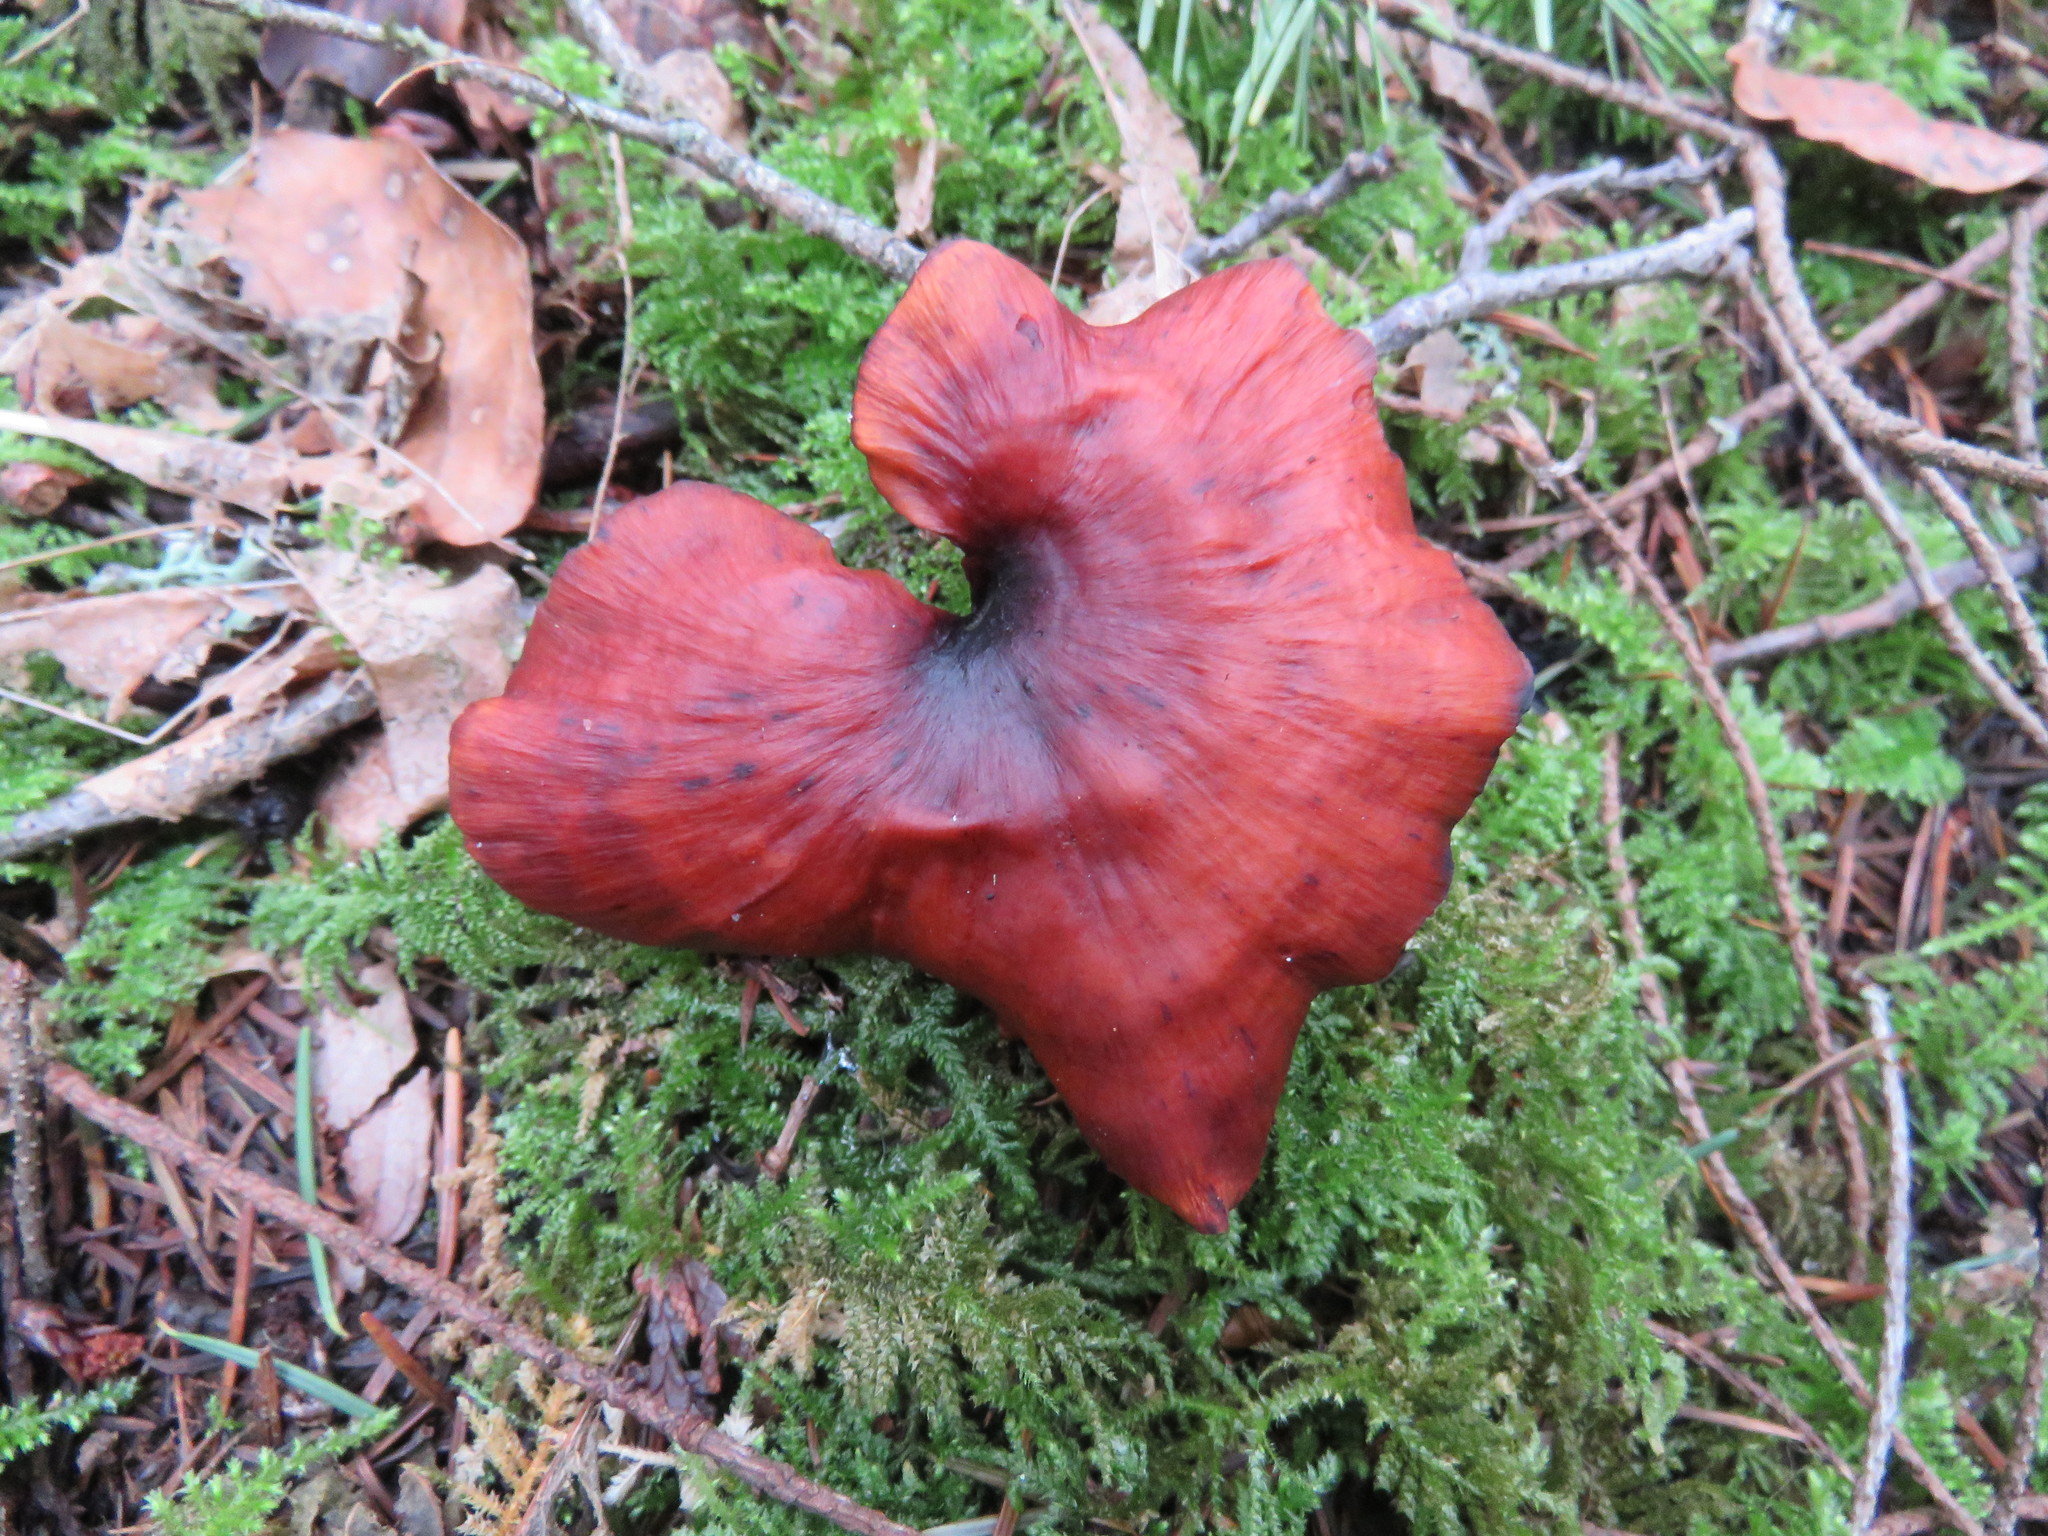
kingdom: Fungi
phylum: Basidiomycota
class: Agaricomycetes
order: Polyporales
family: Polyporaceae
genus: Picipes
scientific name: Picipes badius
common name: Bay polypore
